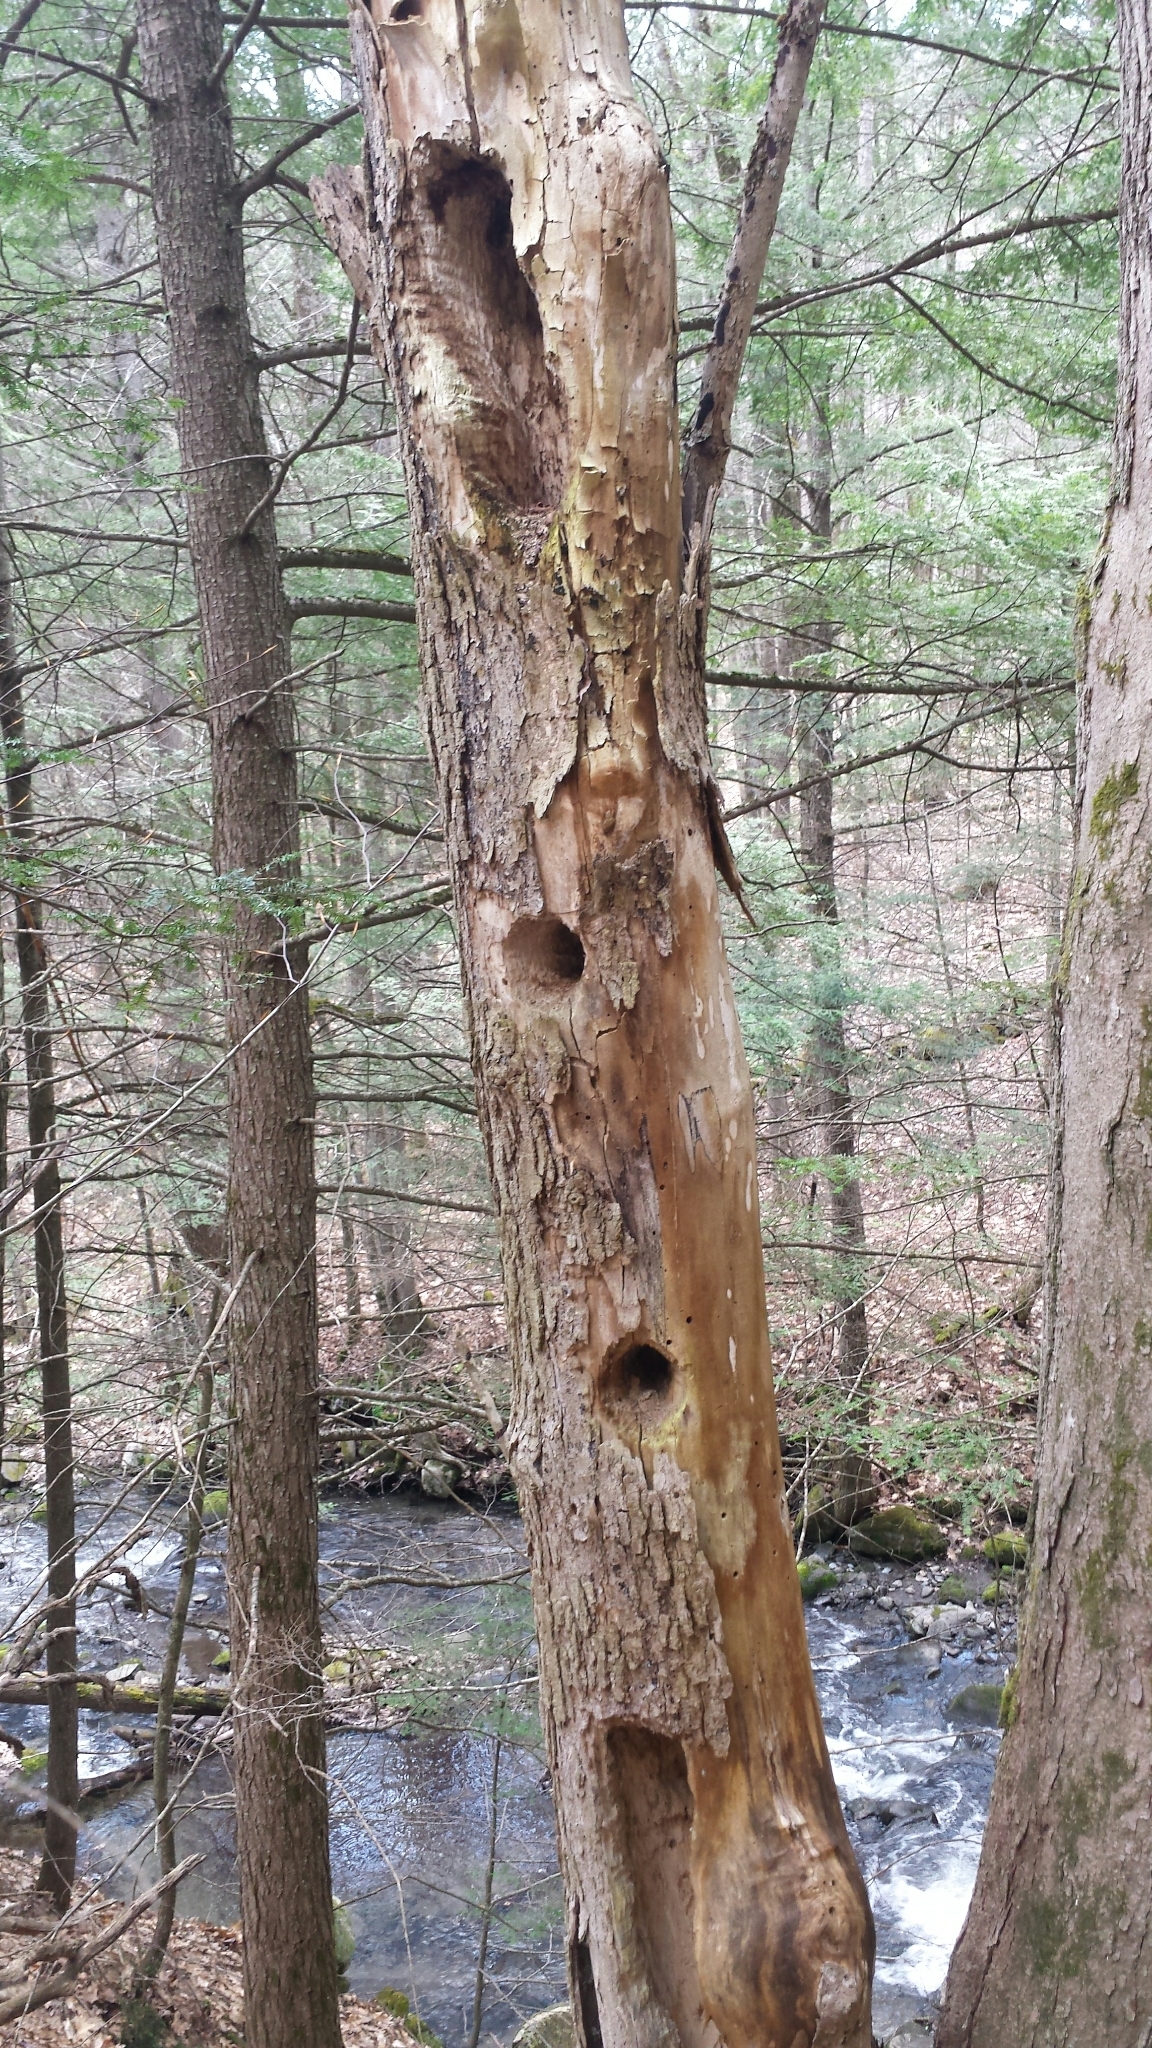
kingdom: Animalia
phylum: Chordata
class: Aves
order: Piciformes
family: Picidae
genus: Dryocopus
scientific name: Dryocopus pileatus
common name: Pileated woodpecker
